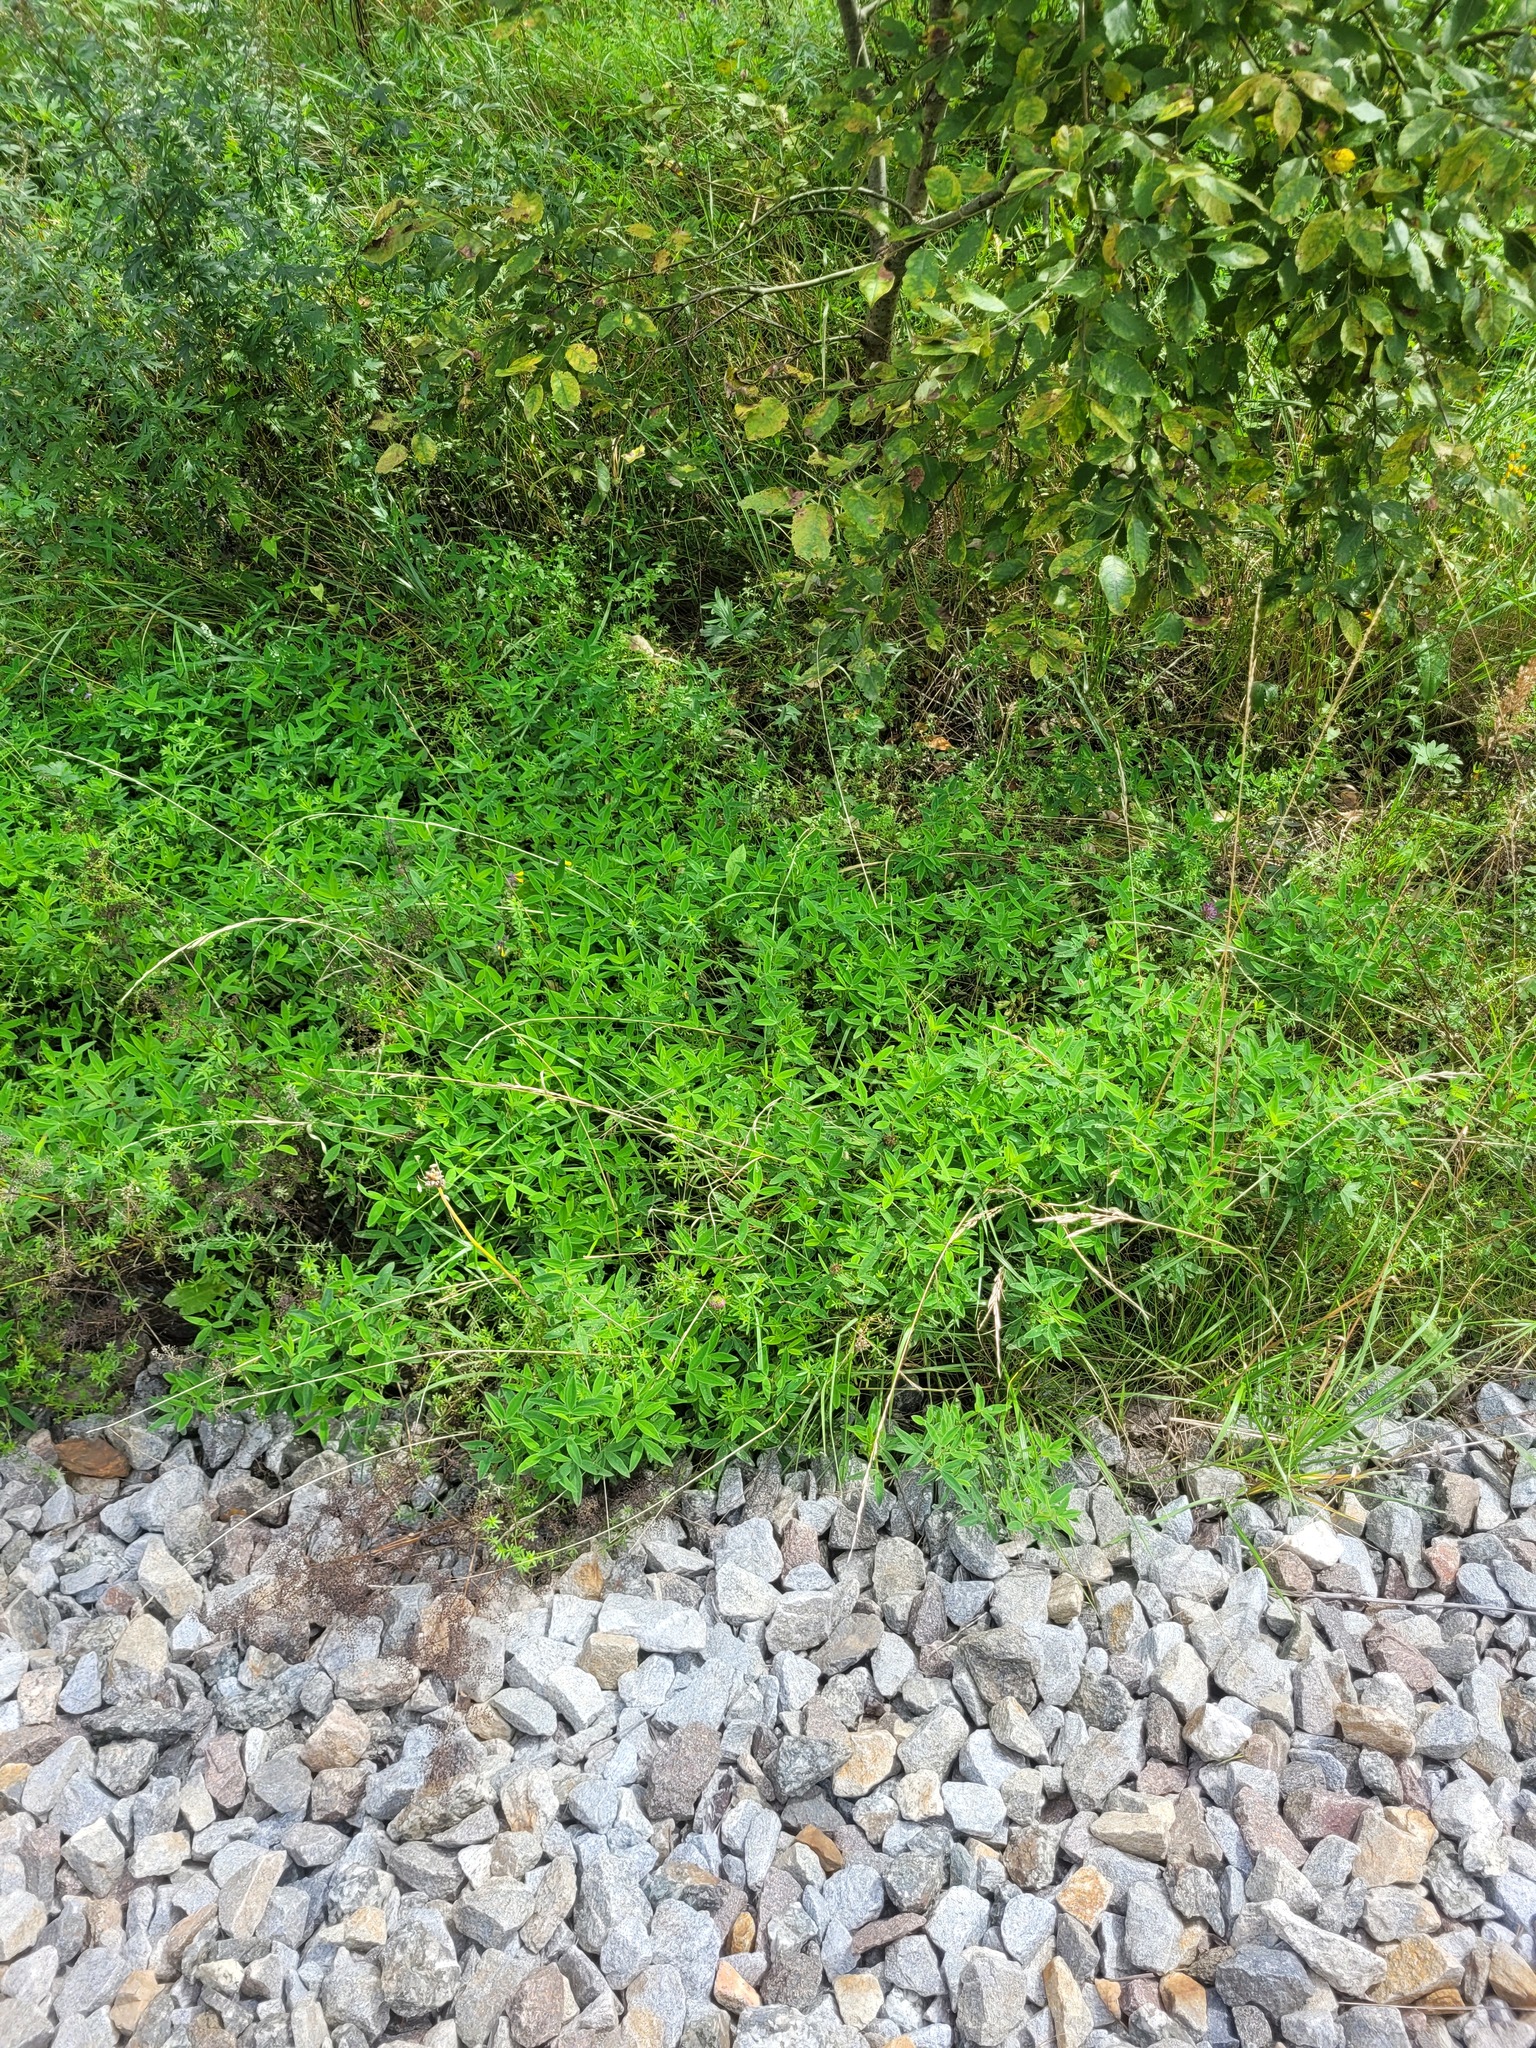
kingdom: Plantae
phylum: Tracheophyta
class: Magnoliopsida
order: Fabales
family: Fabaceae
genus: Trifolium
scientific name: Trifolium medium
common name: Zigzag clover
